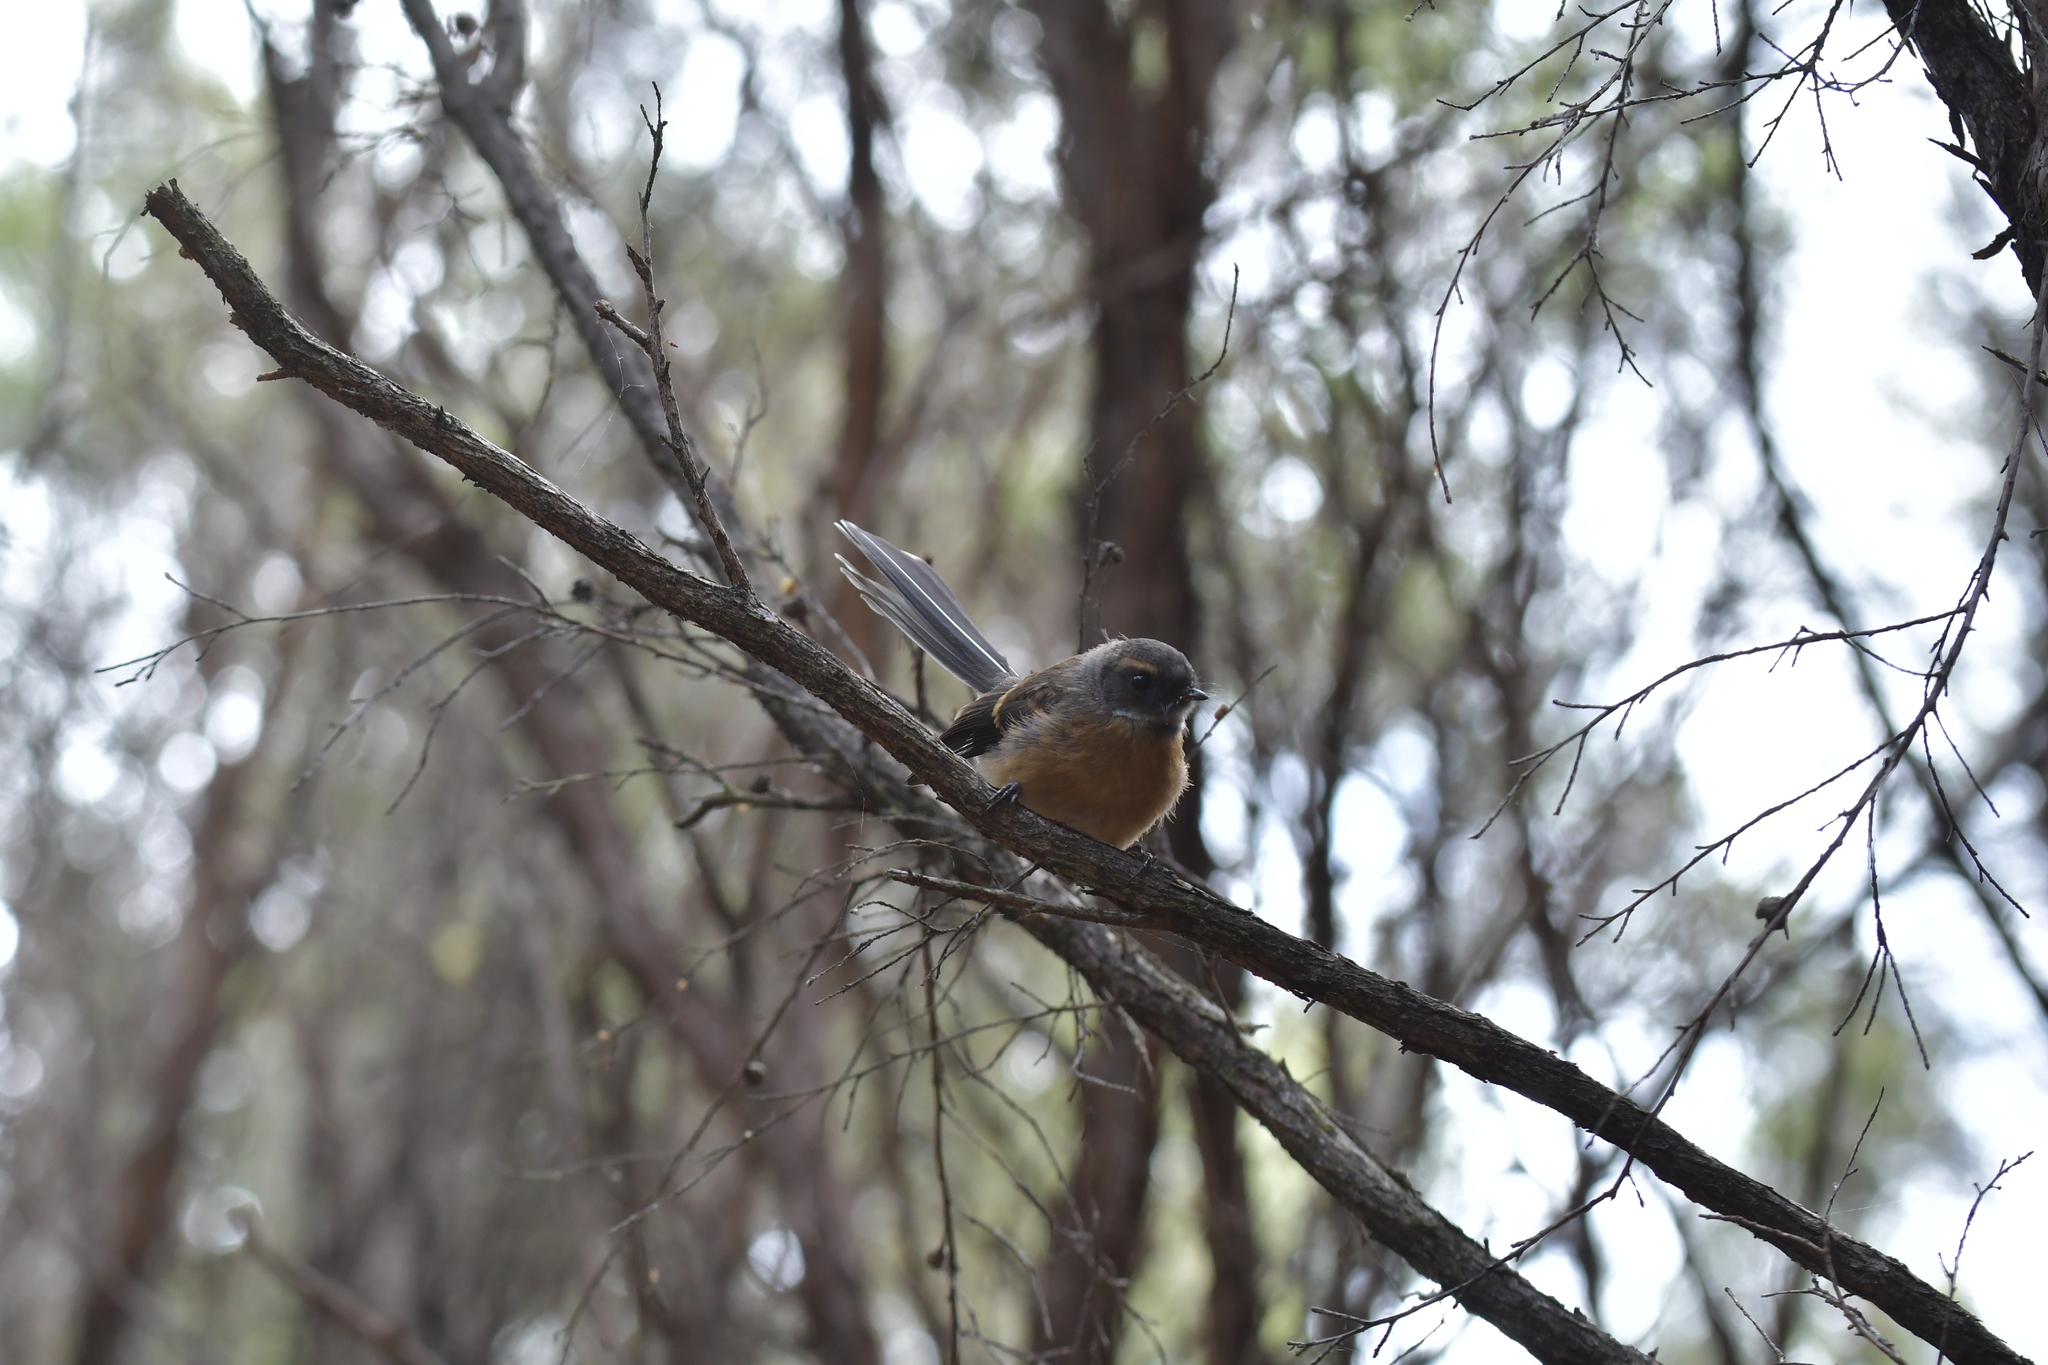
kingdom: Animalia
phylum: Chordata
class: Aves
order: Passeriformes
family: Rhipiduridae
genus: Rhipidura
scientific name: Rhipidura fuliginosa
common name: New zealand fantail
